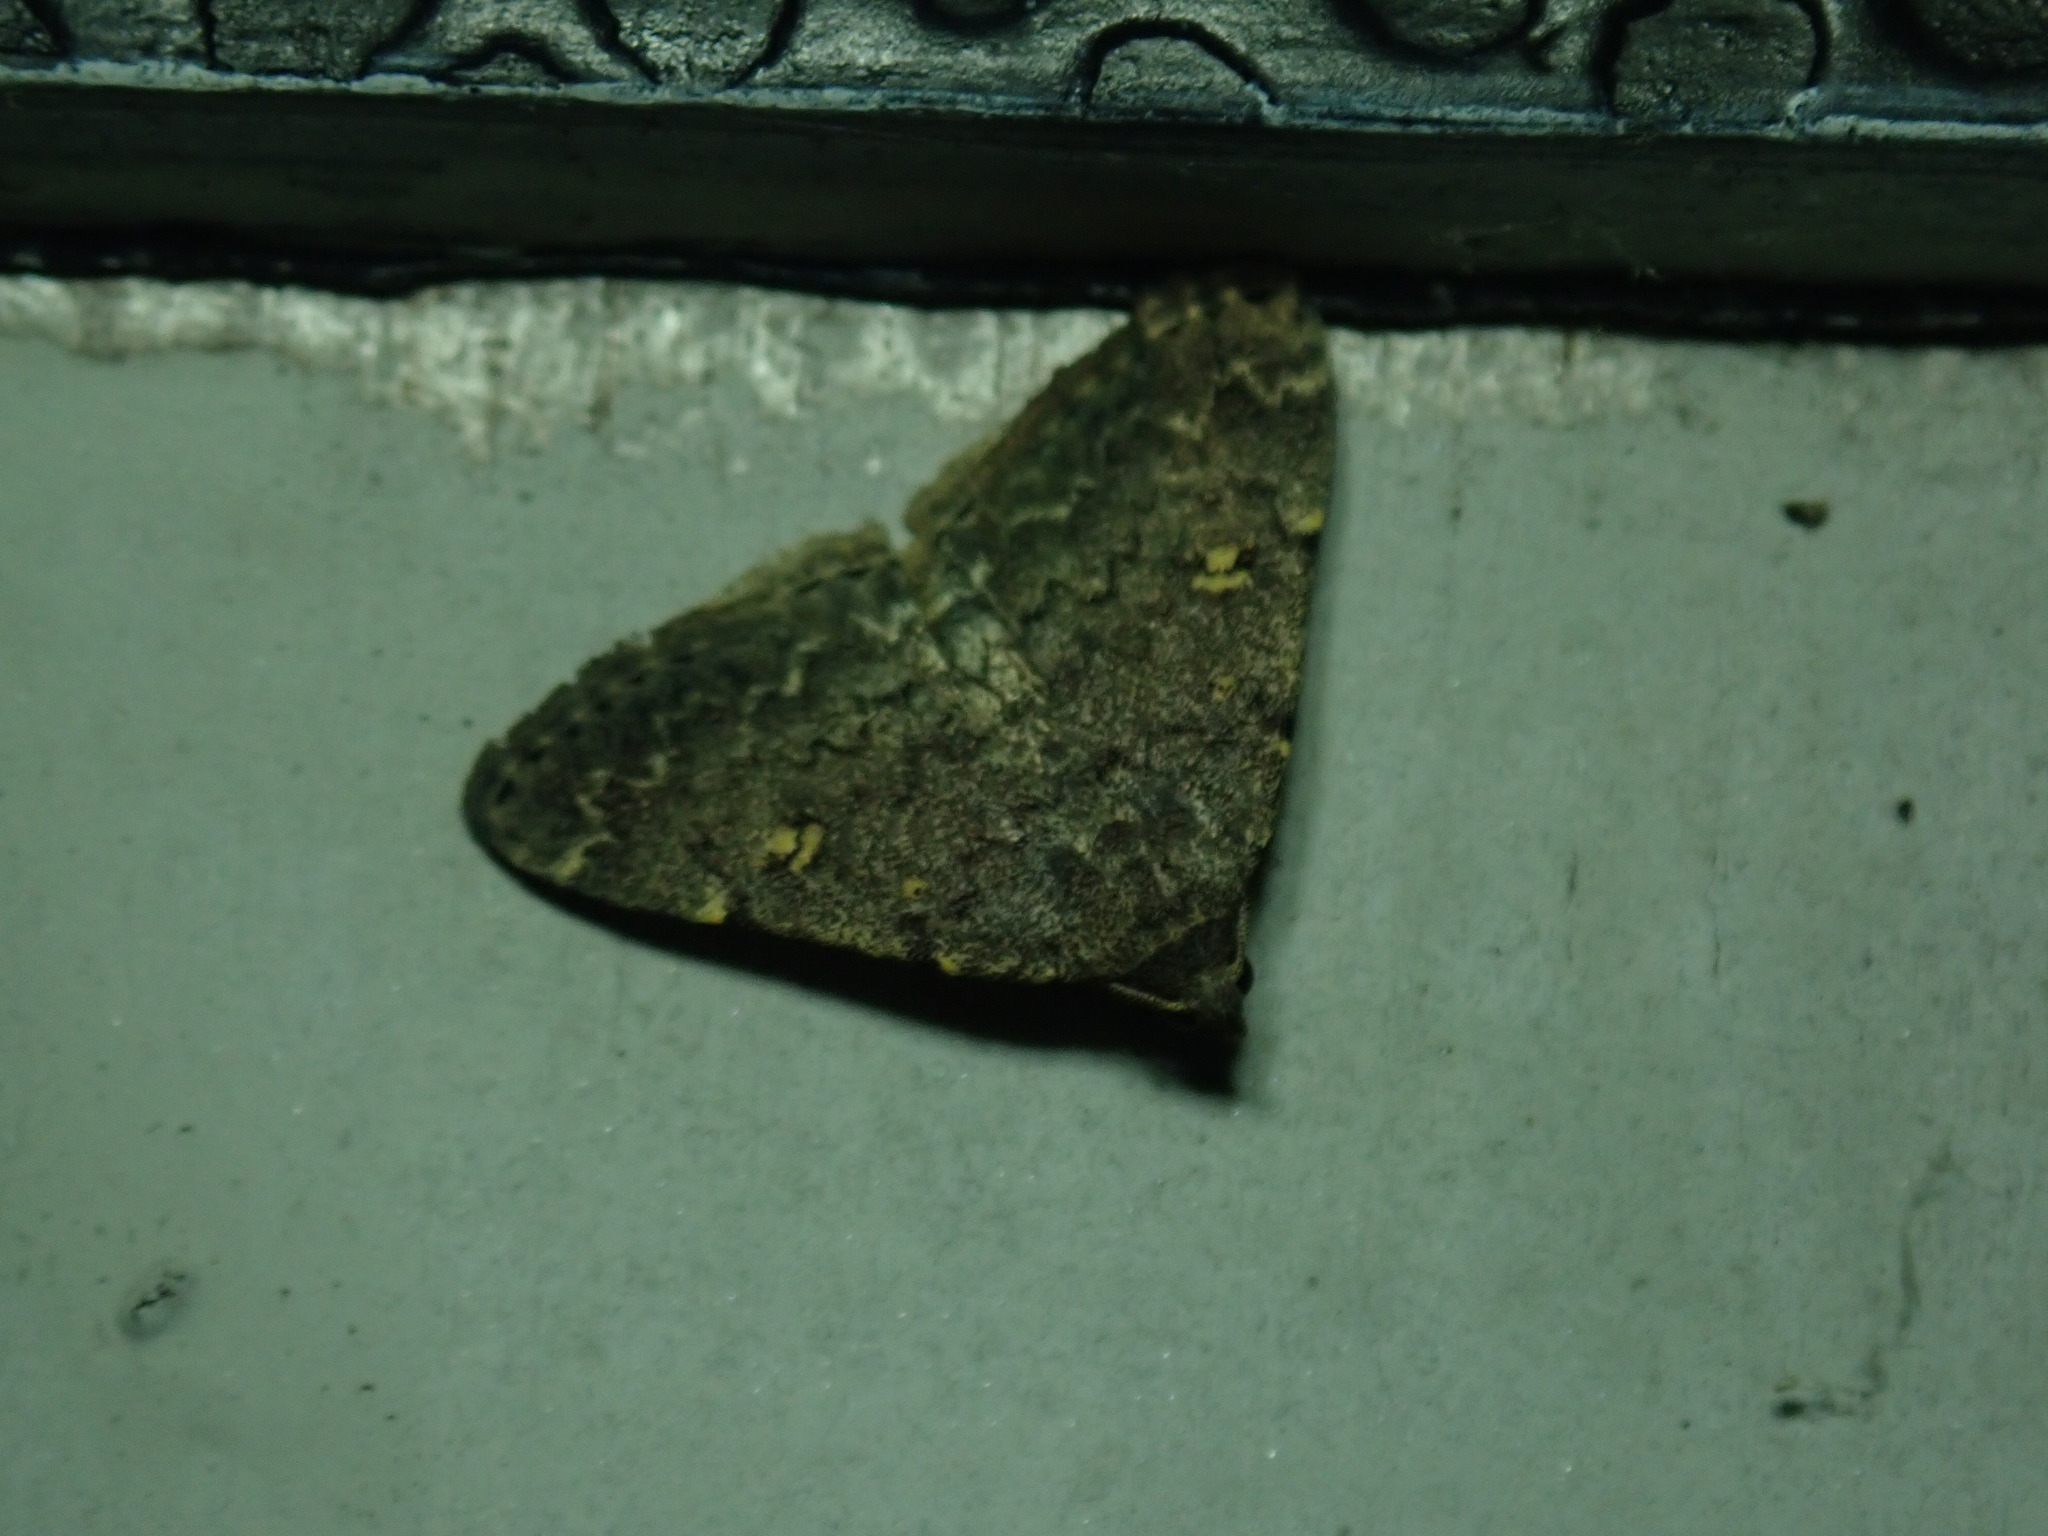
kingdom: Animalia
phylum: Arthropoda
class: Insecta
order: Lepidoptera
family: Erebidae
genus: Idia
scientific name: Idia aemula
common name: Common idia moth
